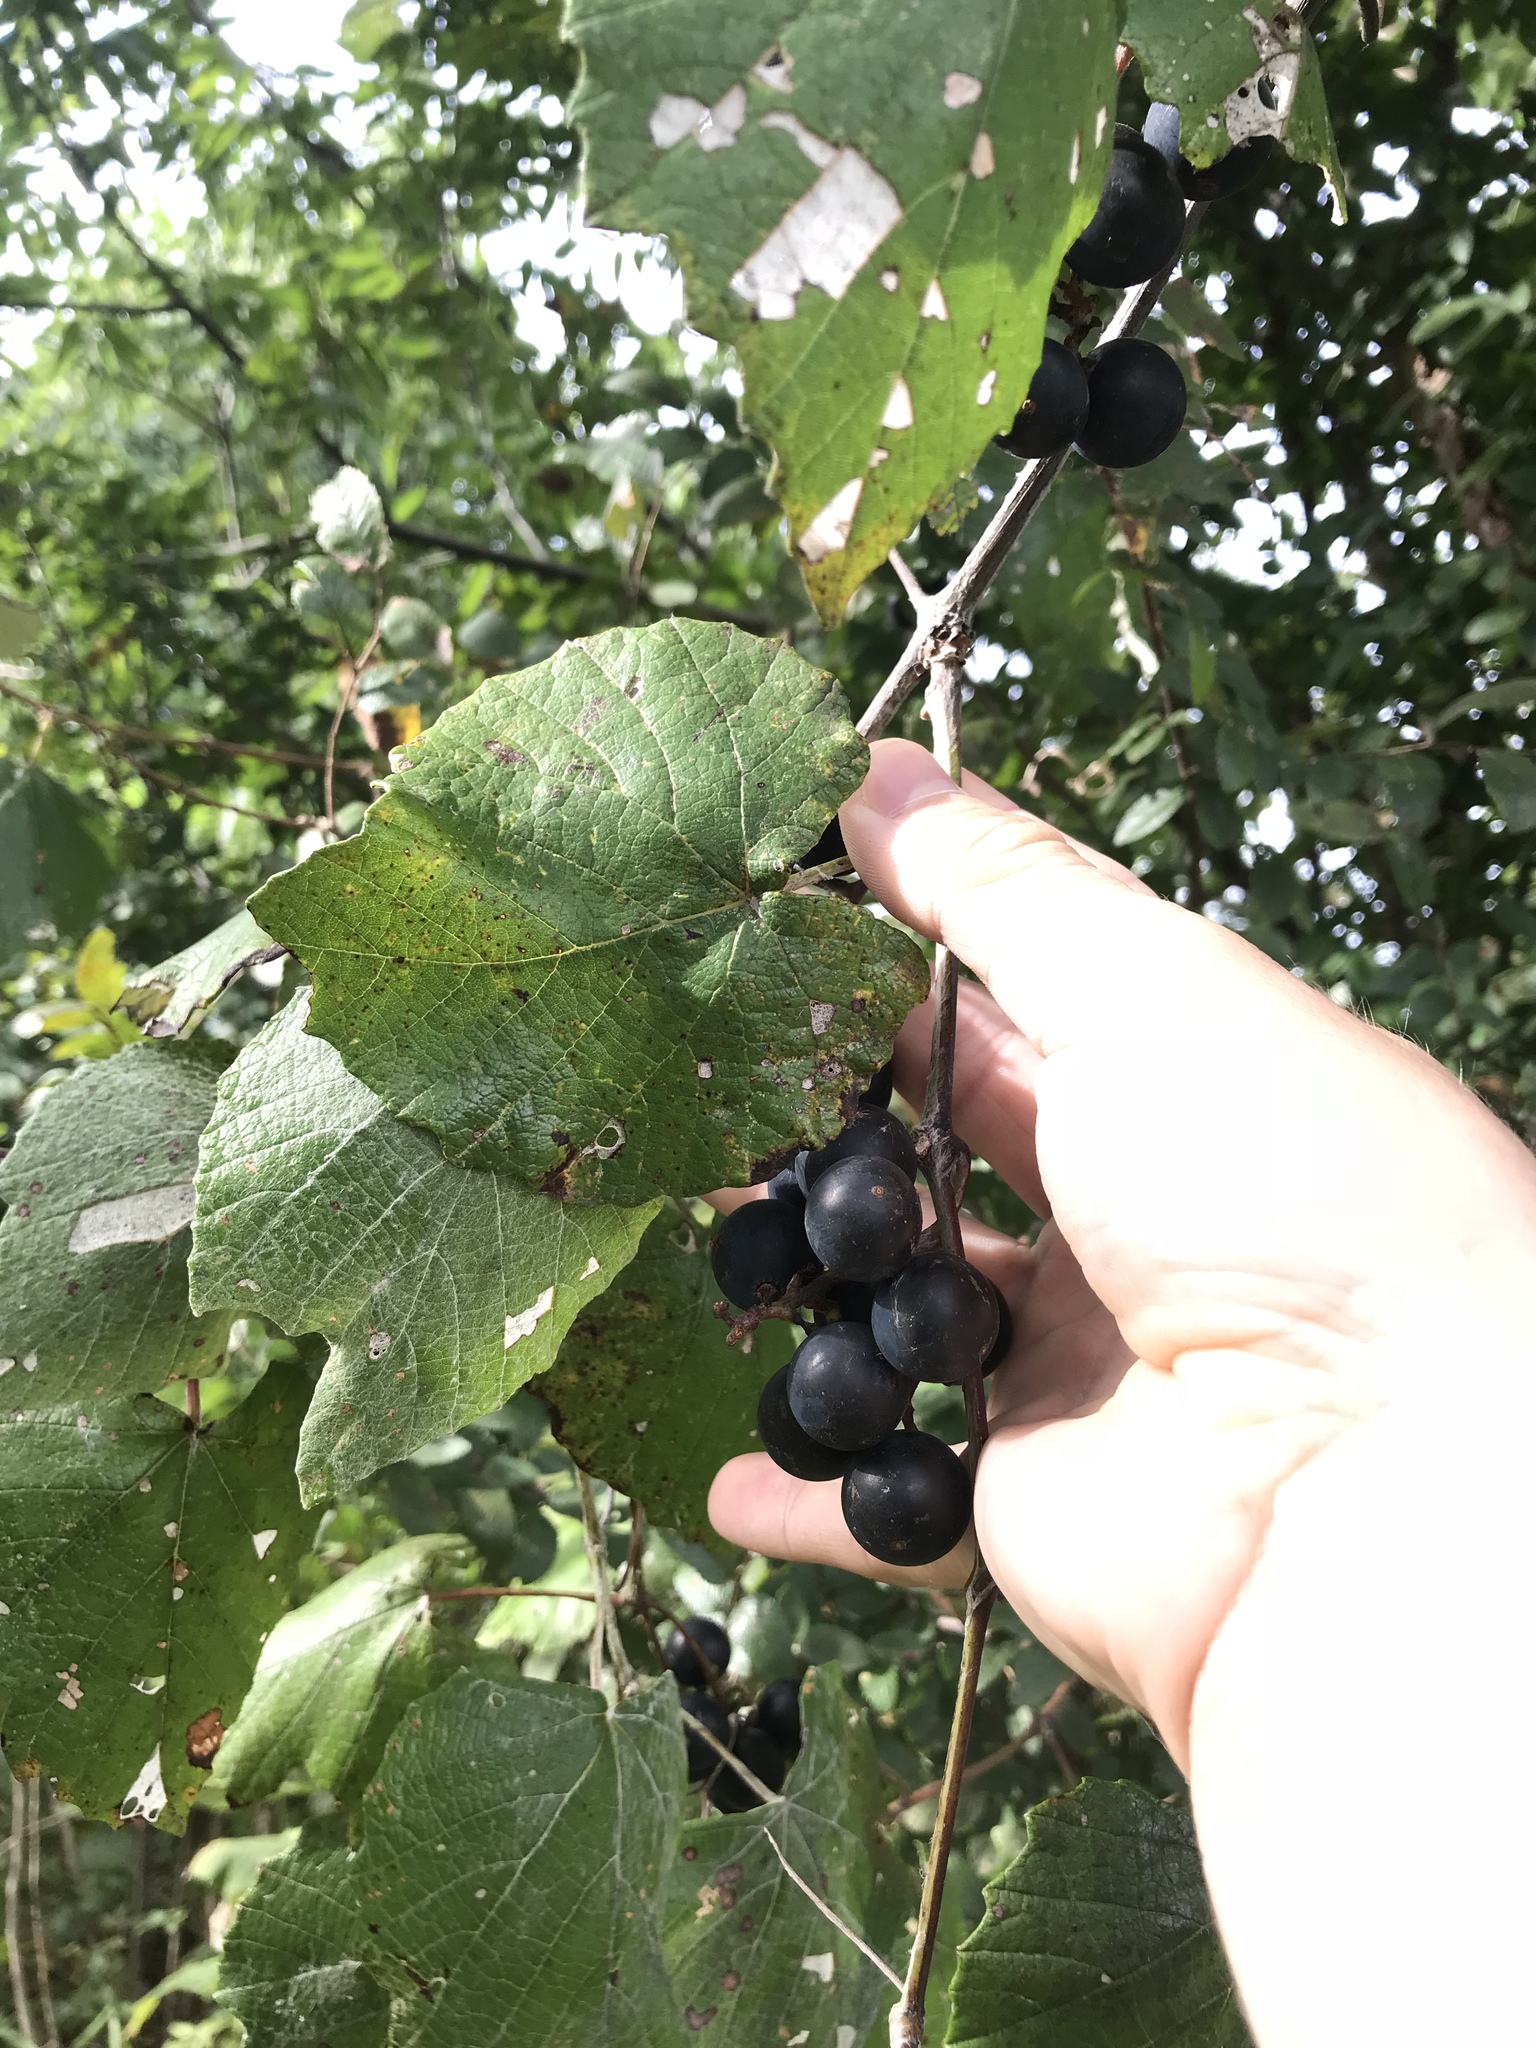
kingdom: Plantae
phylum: Tracheophyta
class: Magnoliopsida
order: Vitales
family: Vitaceae
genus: Vitis
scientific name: Vitis mustangensis
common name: Mustang grape
